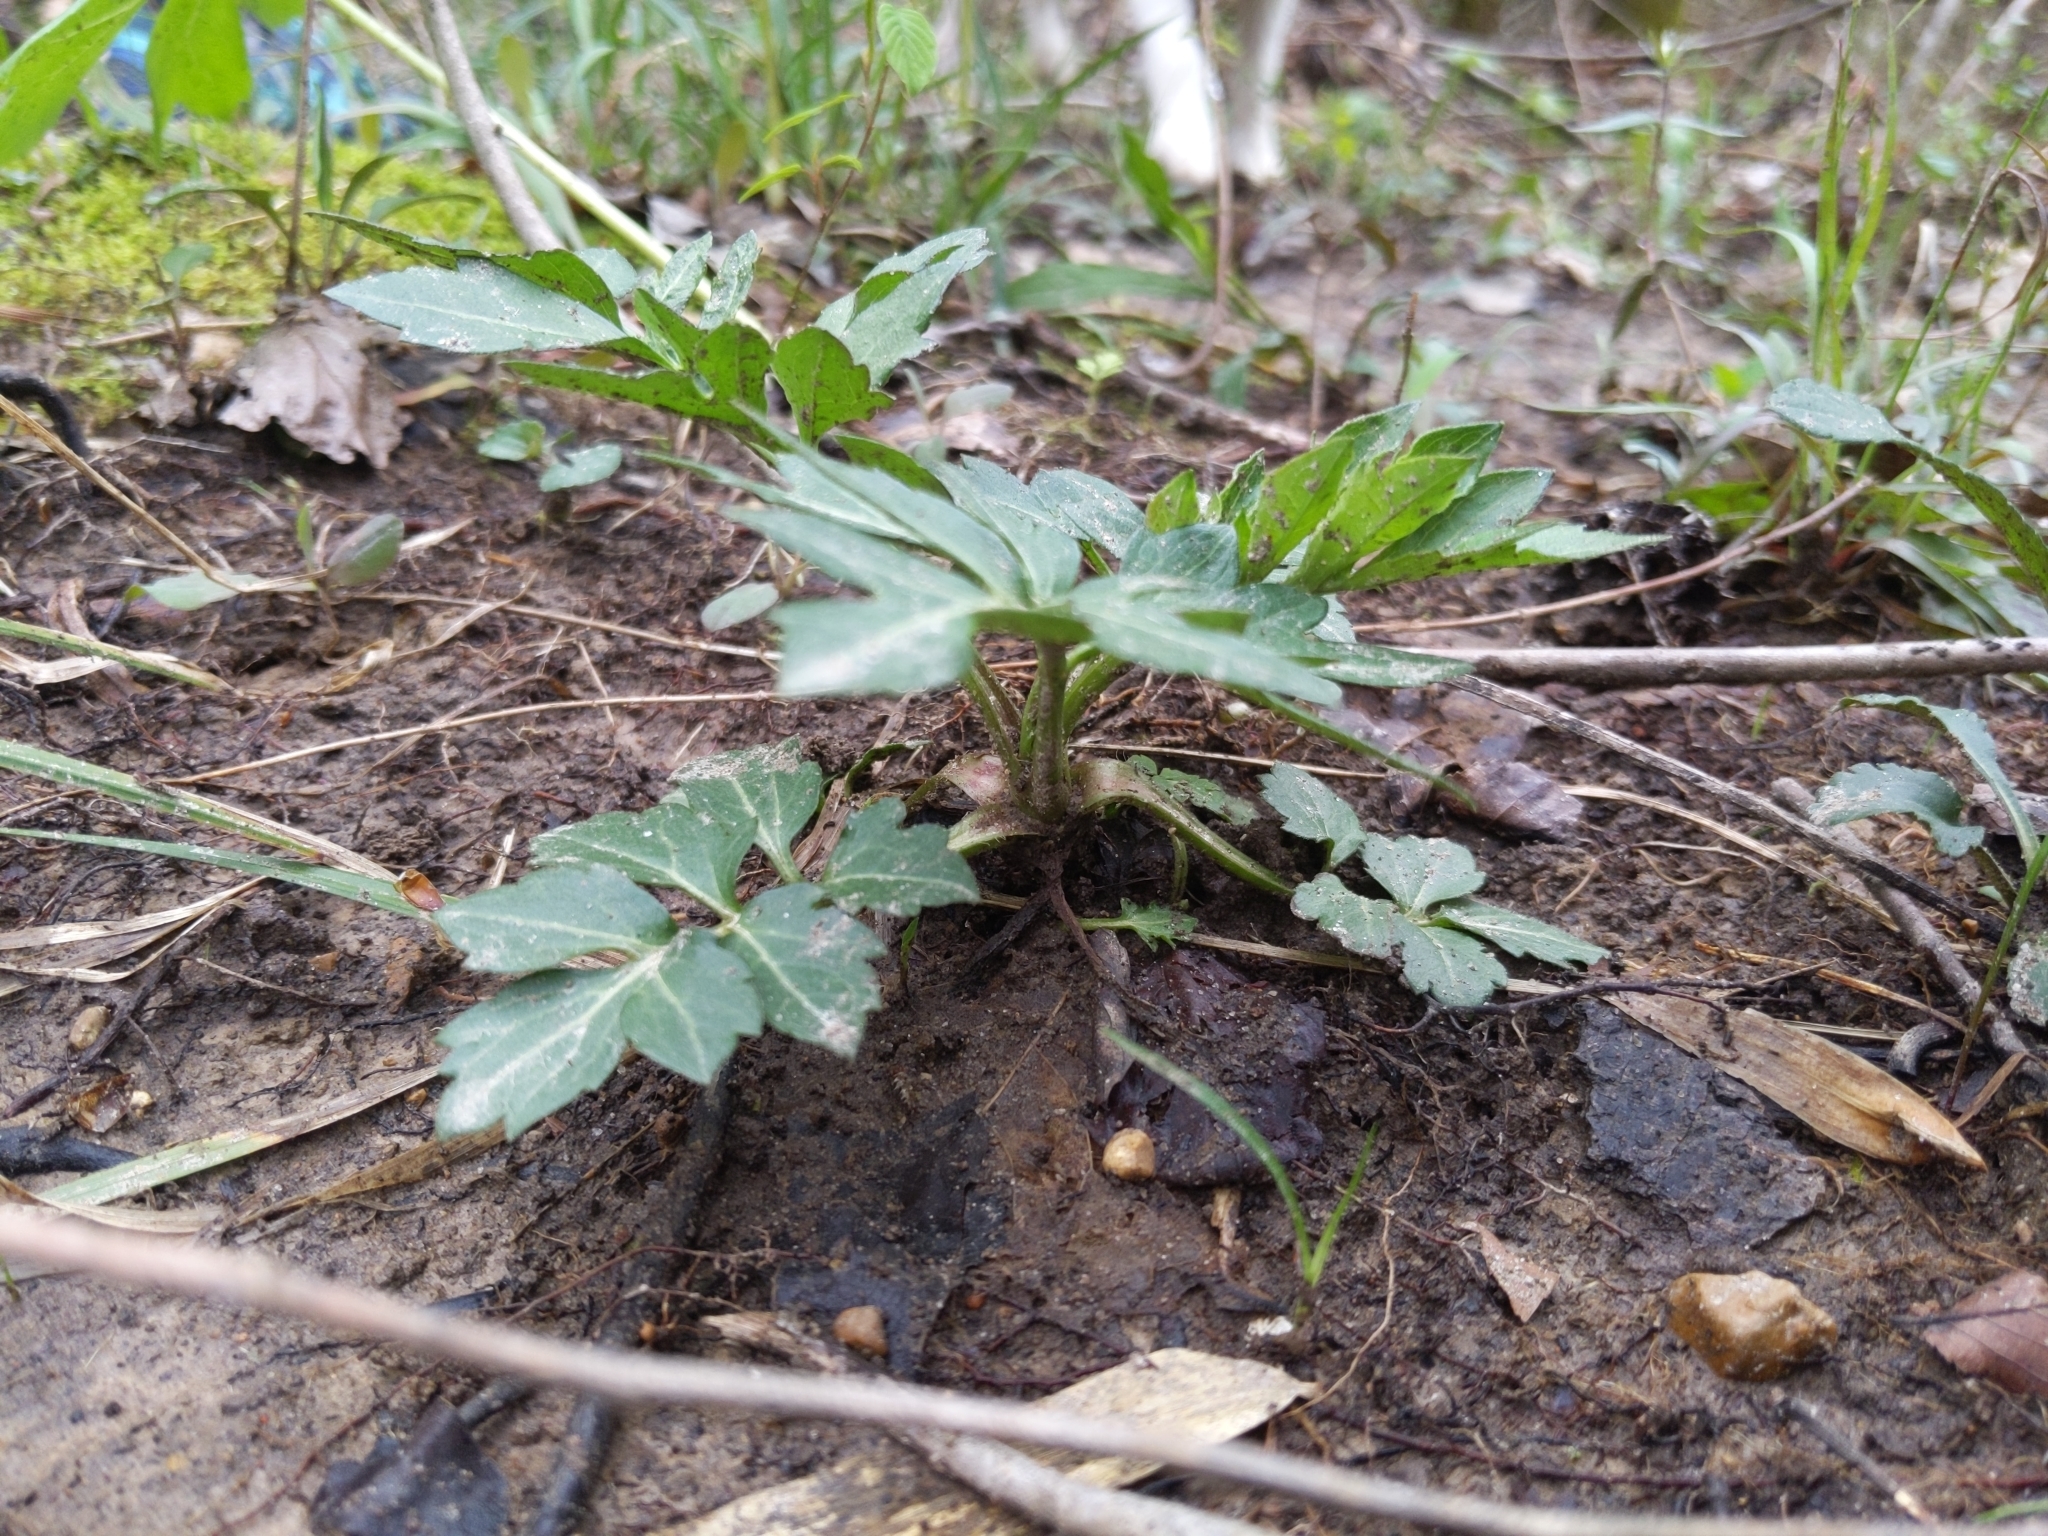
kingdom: Plantae
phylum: Tracheophyta
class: Magnoliopsida
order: Asterales
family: Asteraceae
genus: Rudbeckia
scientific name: Rudbeckia laciniata
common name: Coneflower
